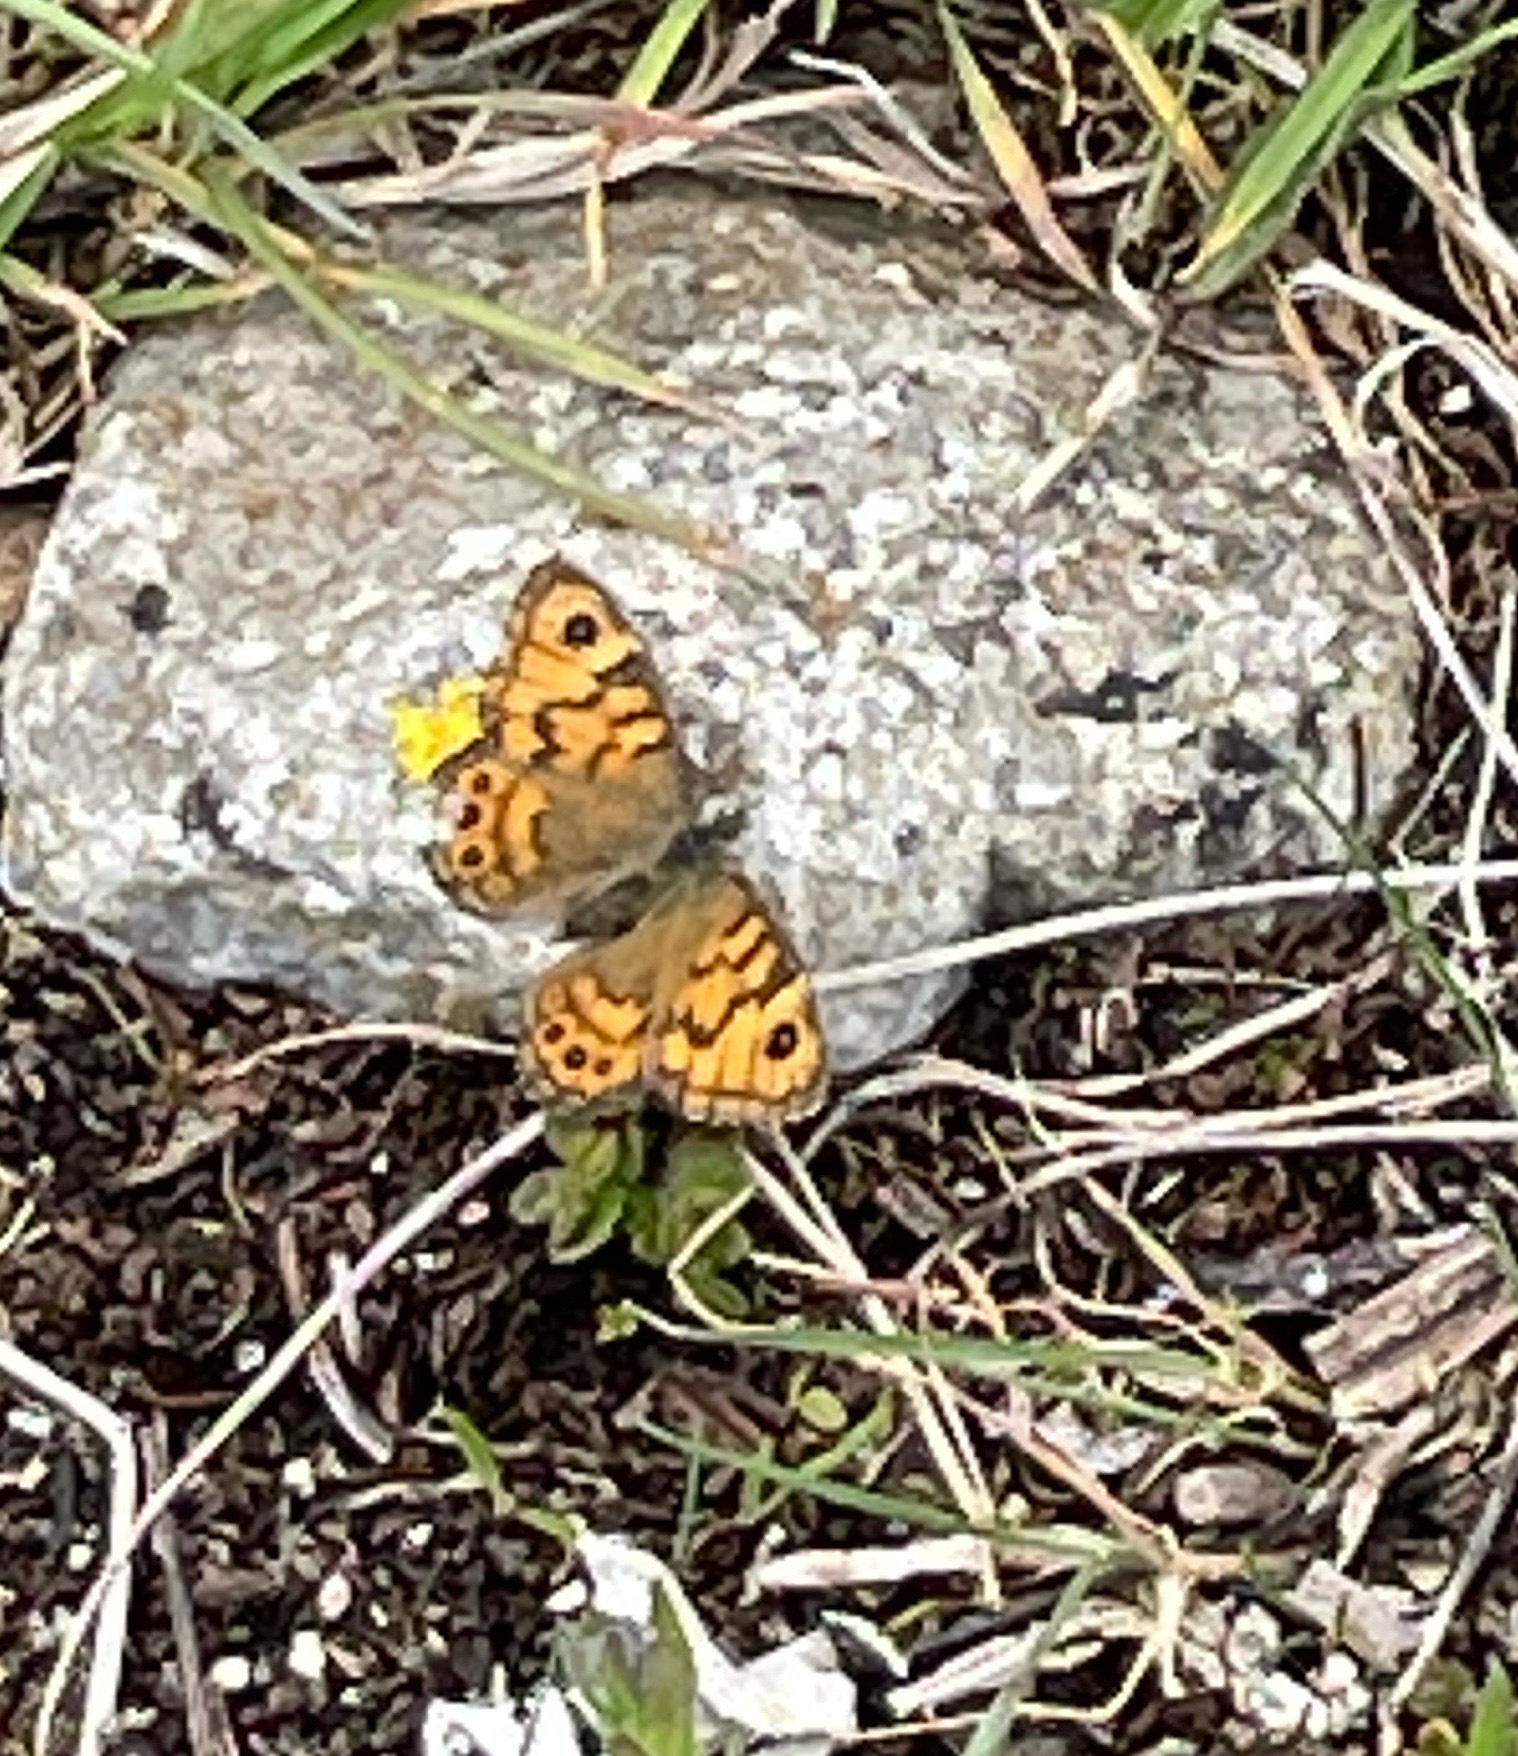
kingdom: Animalia
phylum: Arthropoda
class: Insecta
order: Lepidoptera
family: Nymphalidae
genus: Pararge
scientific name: Pararge Lasiommata megera
